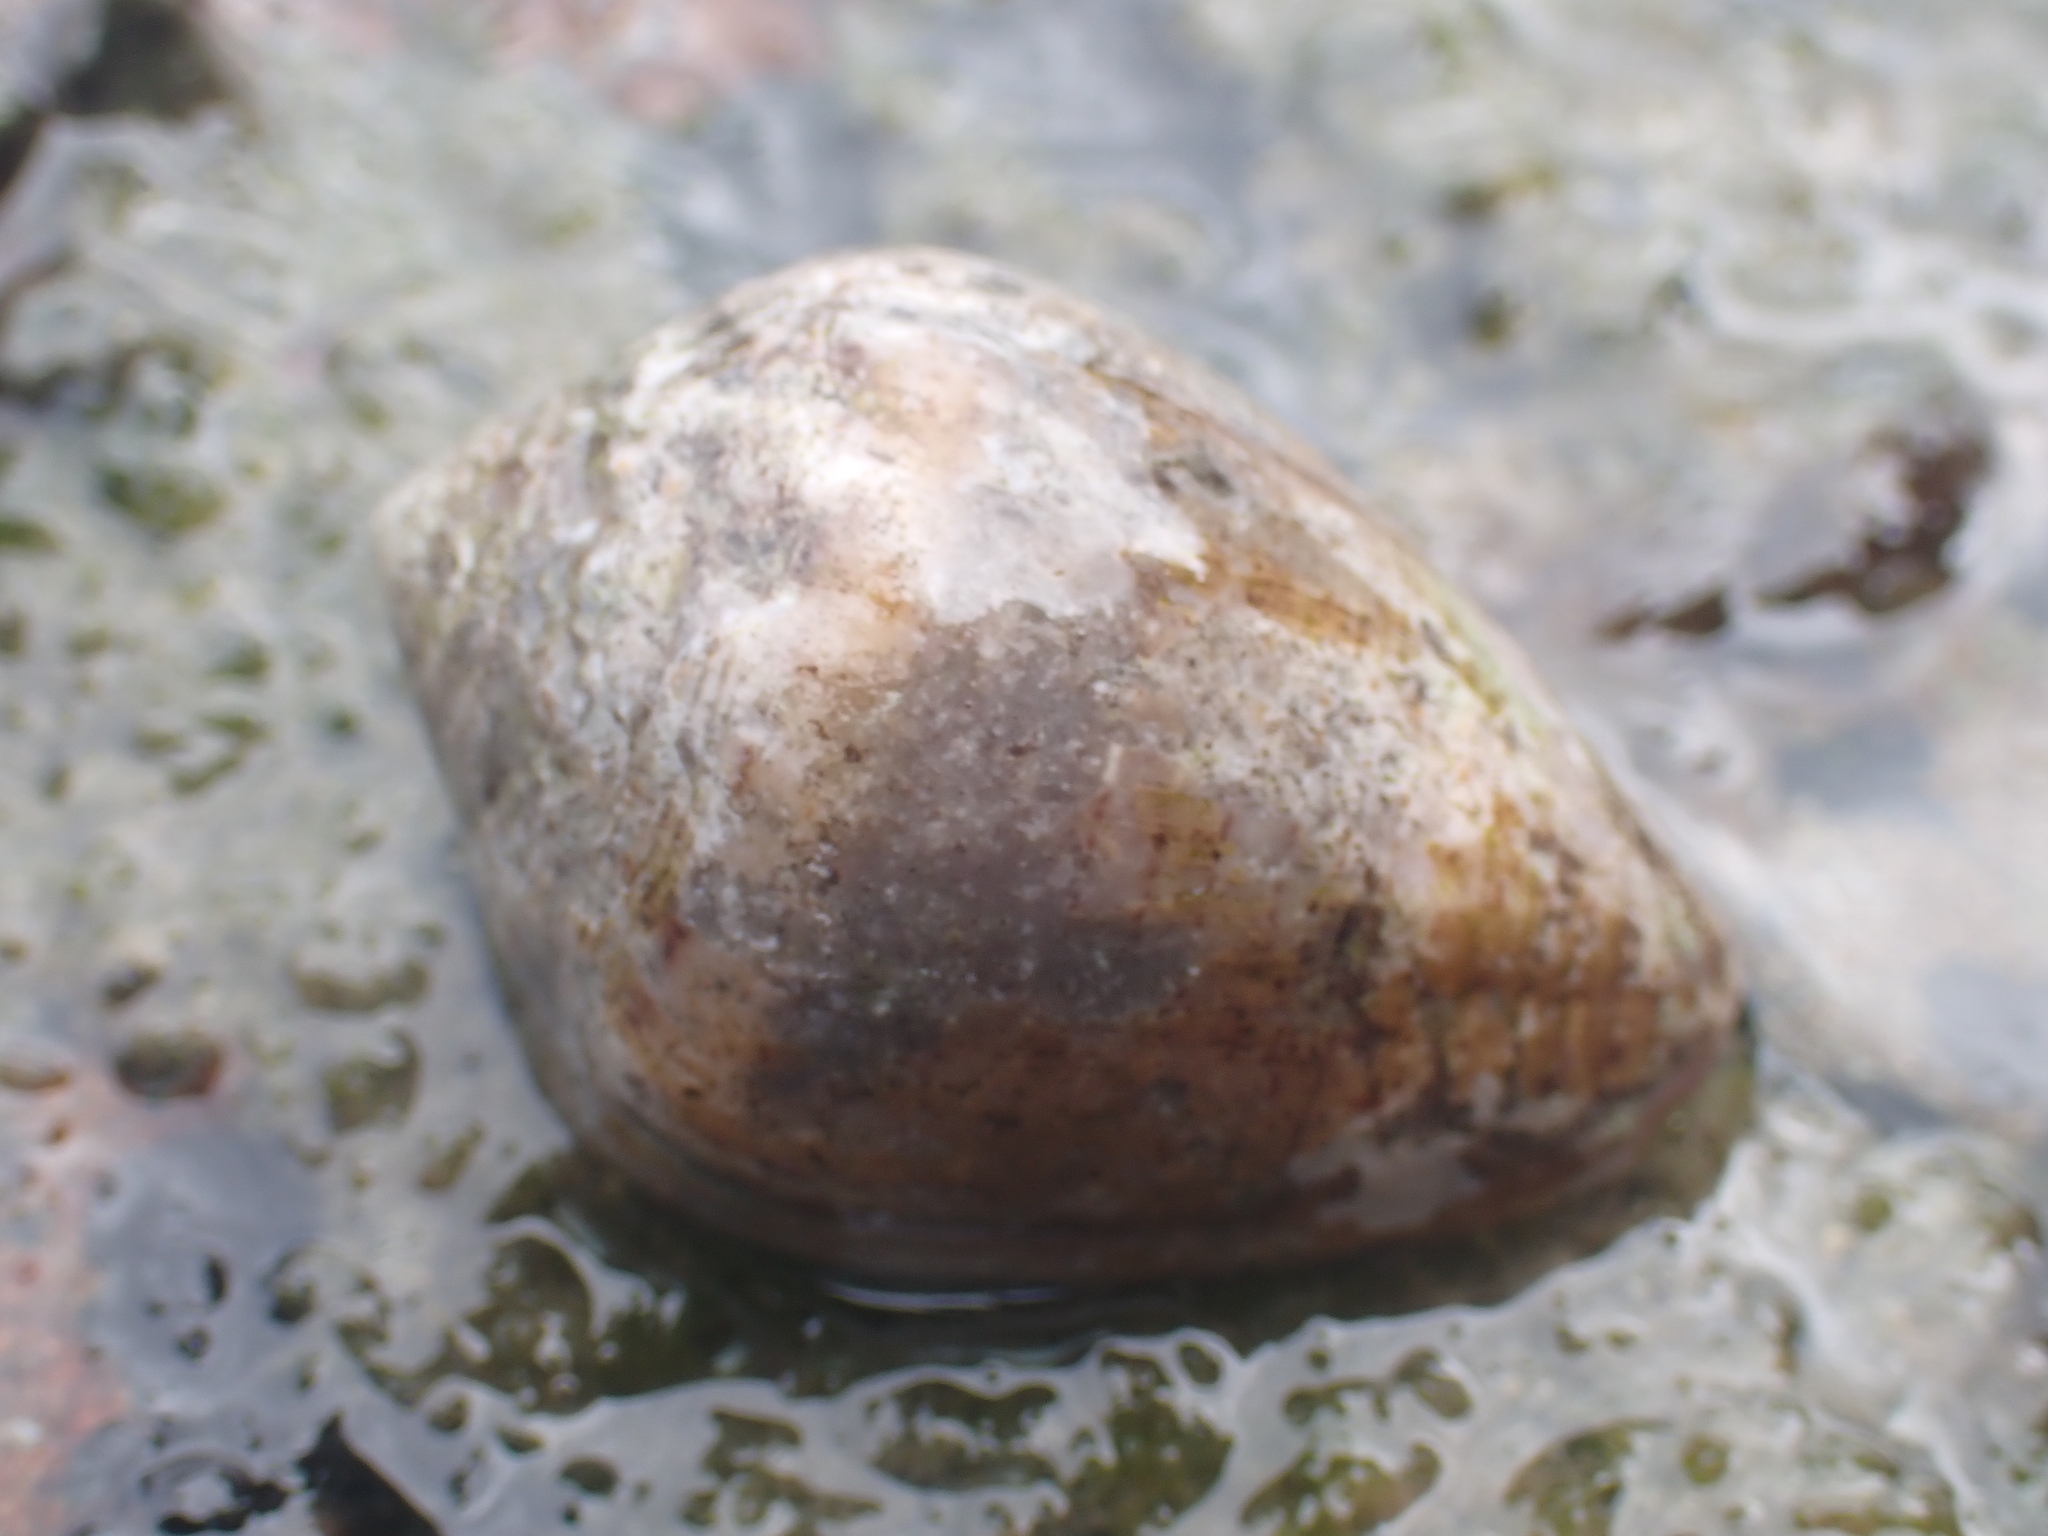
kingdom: Animalia
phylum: Mollusca
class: Gastropoda
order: Neogastropoda
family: Conidae
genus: Conus
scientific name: Conus coronatus
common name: Coronated cone
